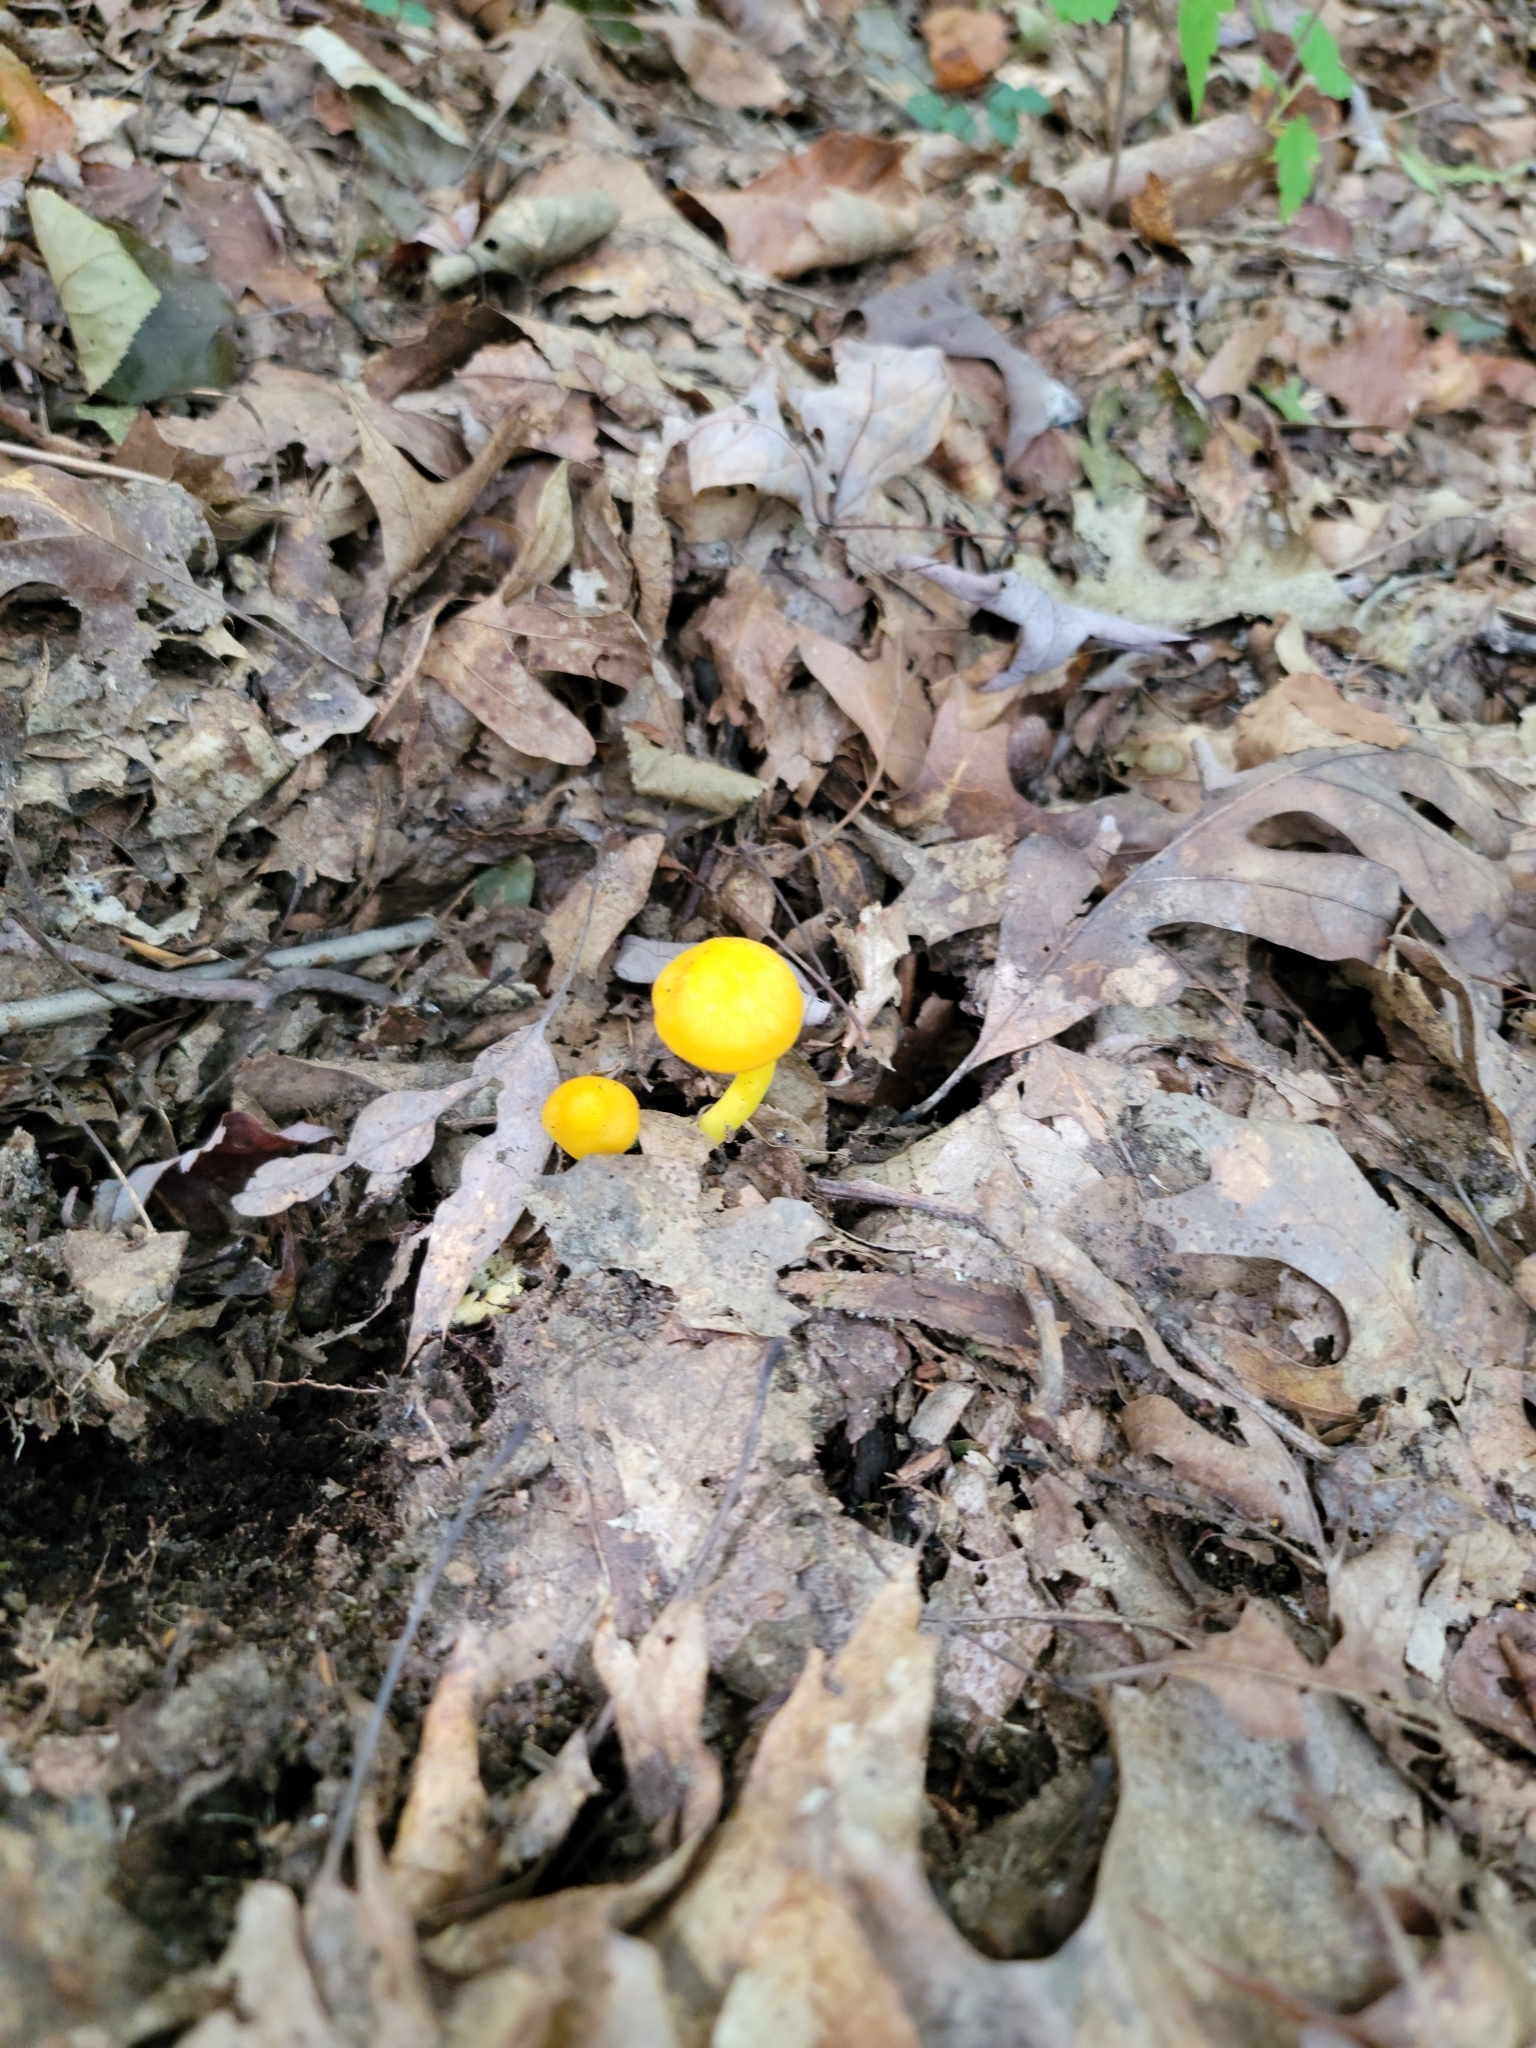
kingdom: Fungi
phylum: Basidiomycota
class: Agaricomycetes
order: Agaricales
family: Hygrophoraceae
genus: Humidicutis
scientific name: Humidicutis marginata
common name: Orange gilled waxcap
